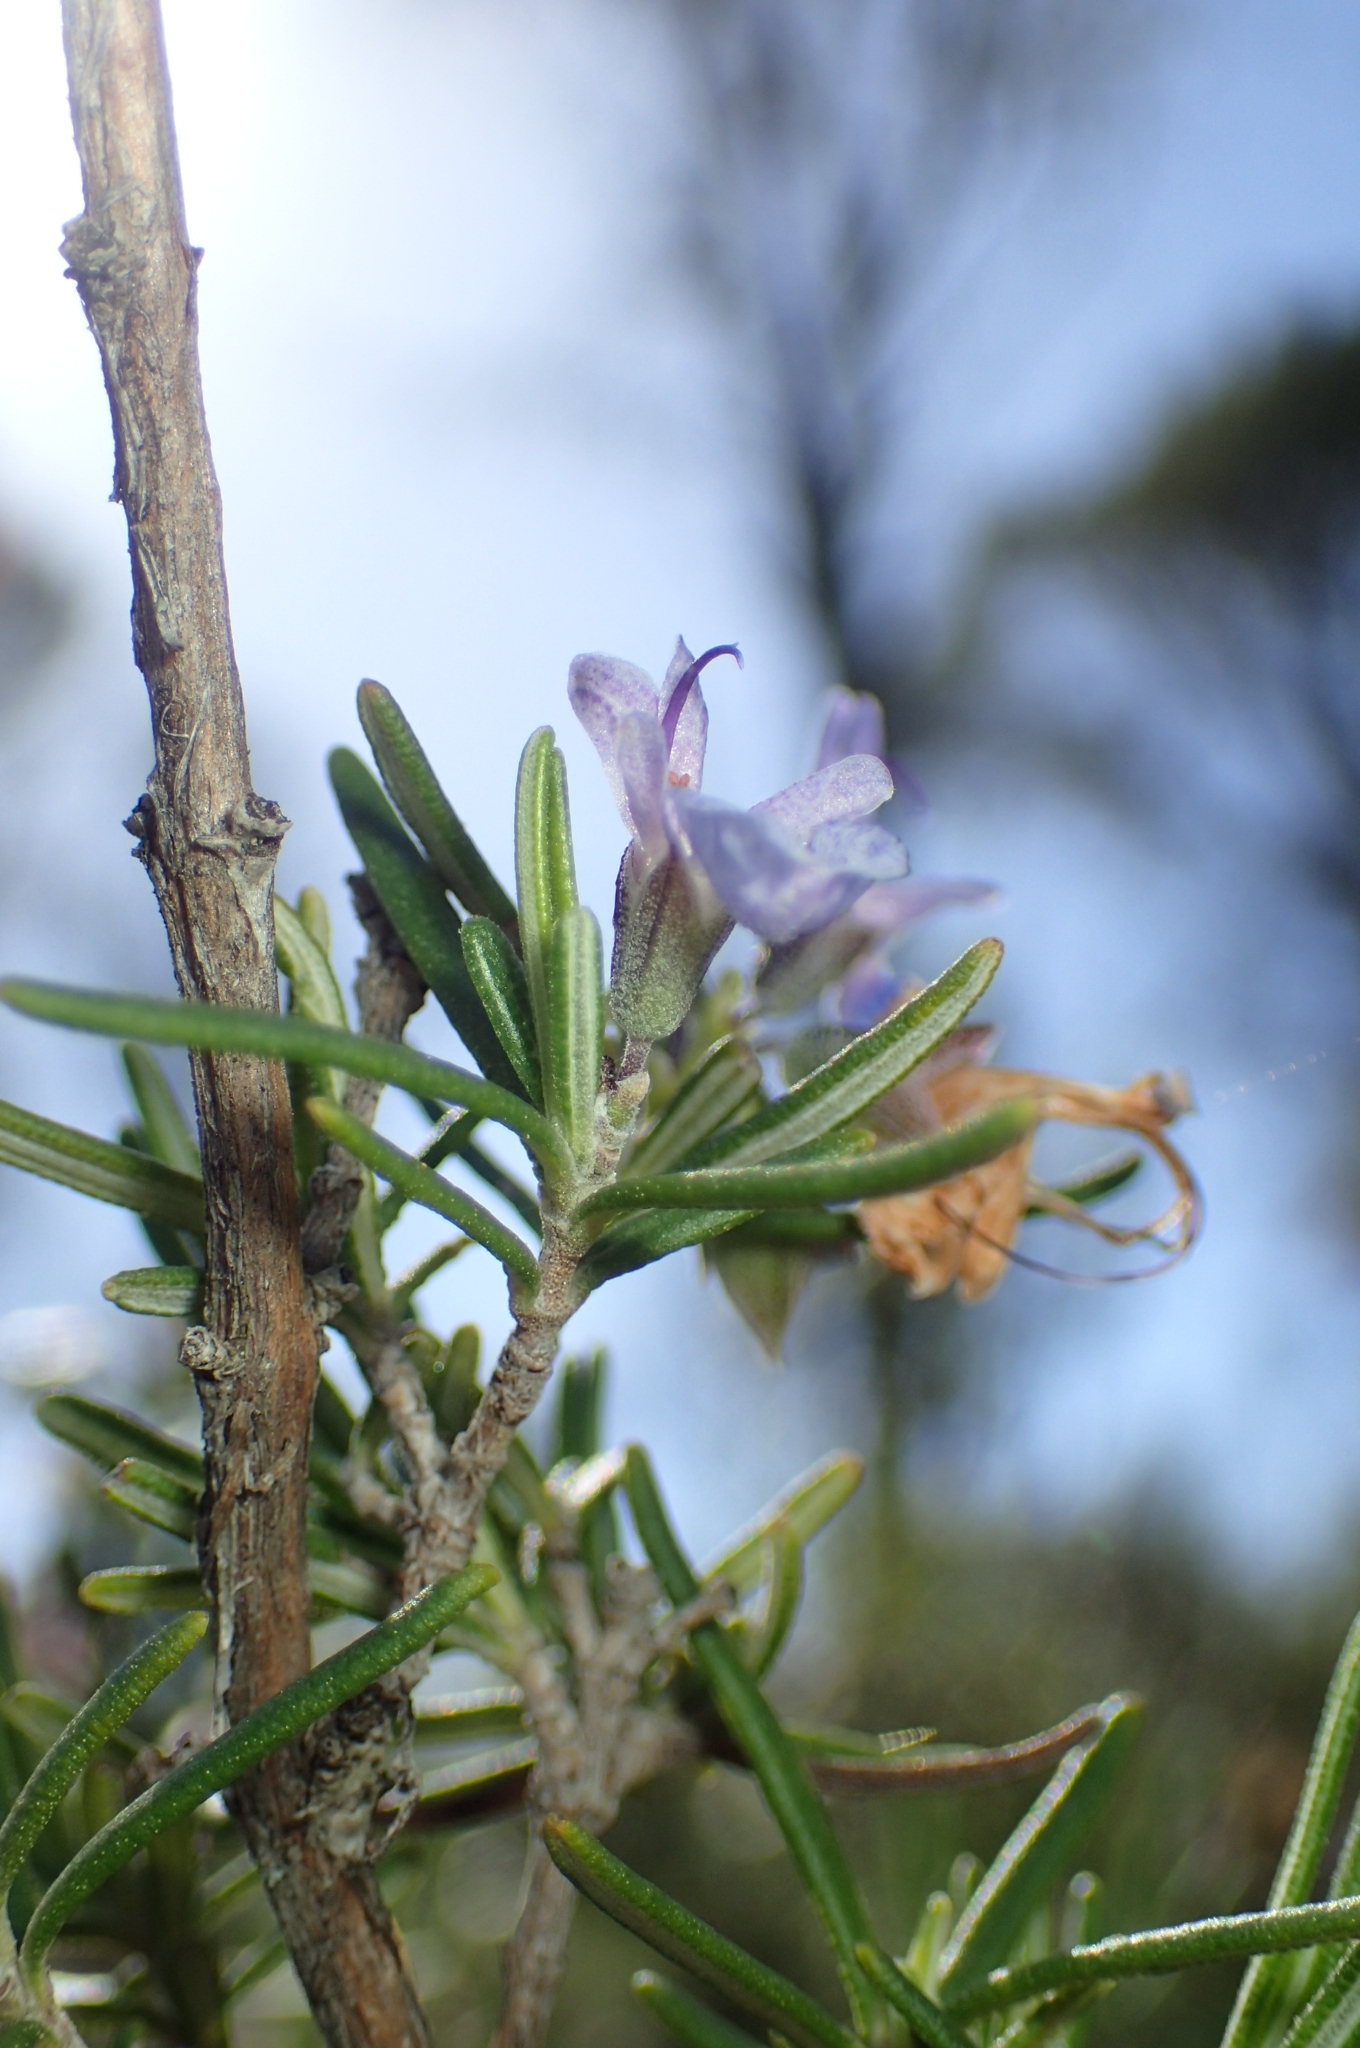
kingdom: Plantae
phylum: Tracheophyta
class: Magnoliopsida
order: Lamiales
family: Lamiaceae
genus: Salvia
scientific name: Salvia rosmarinus
